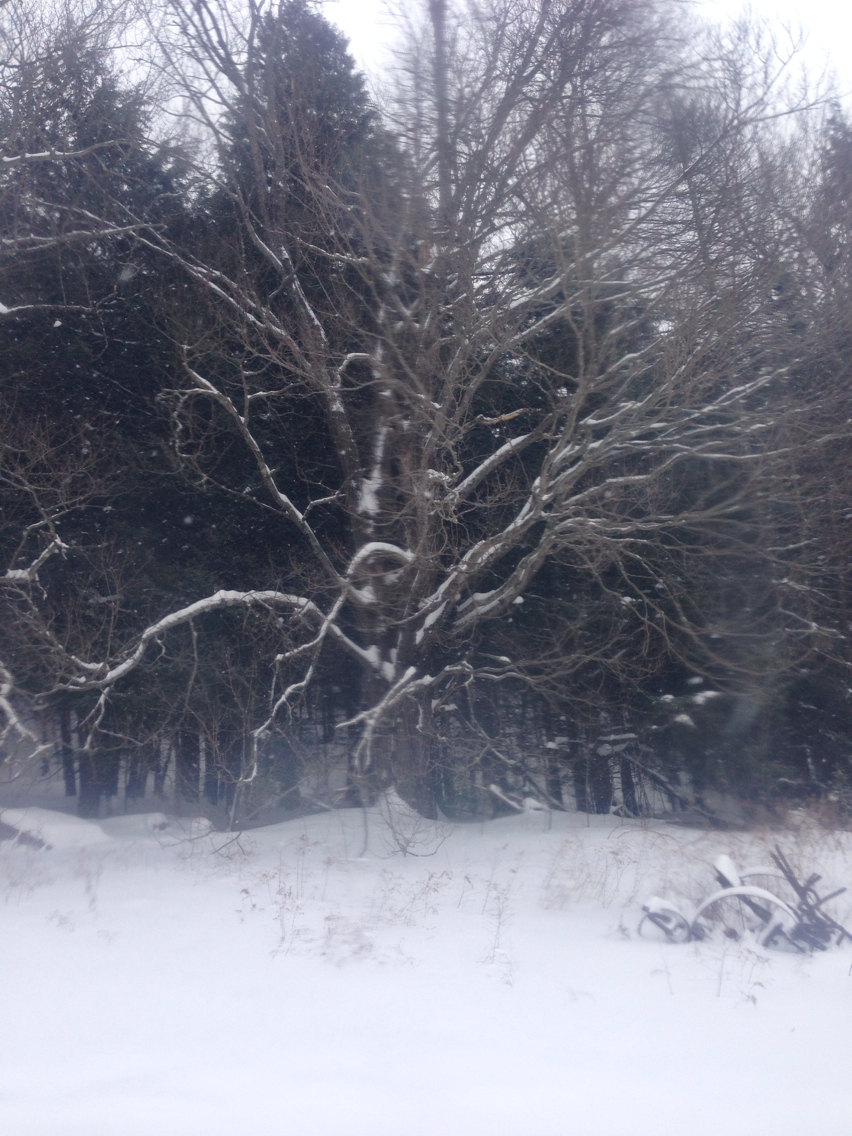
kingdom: Plantae
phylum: Tracheophyta
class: Magnoliopsida
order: Sapindales
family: Sapindaceae
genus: Acer
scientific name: Acer saccharum
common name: Sugar maple
